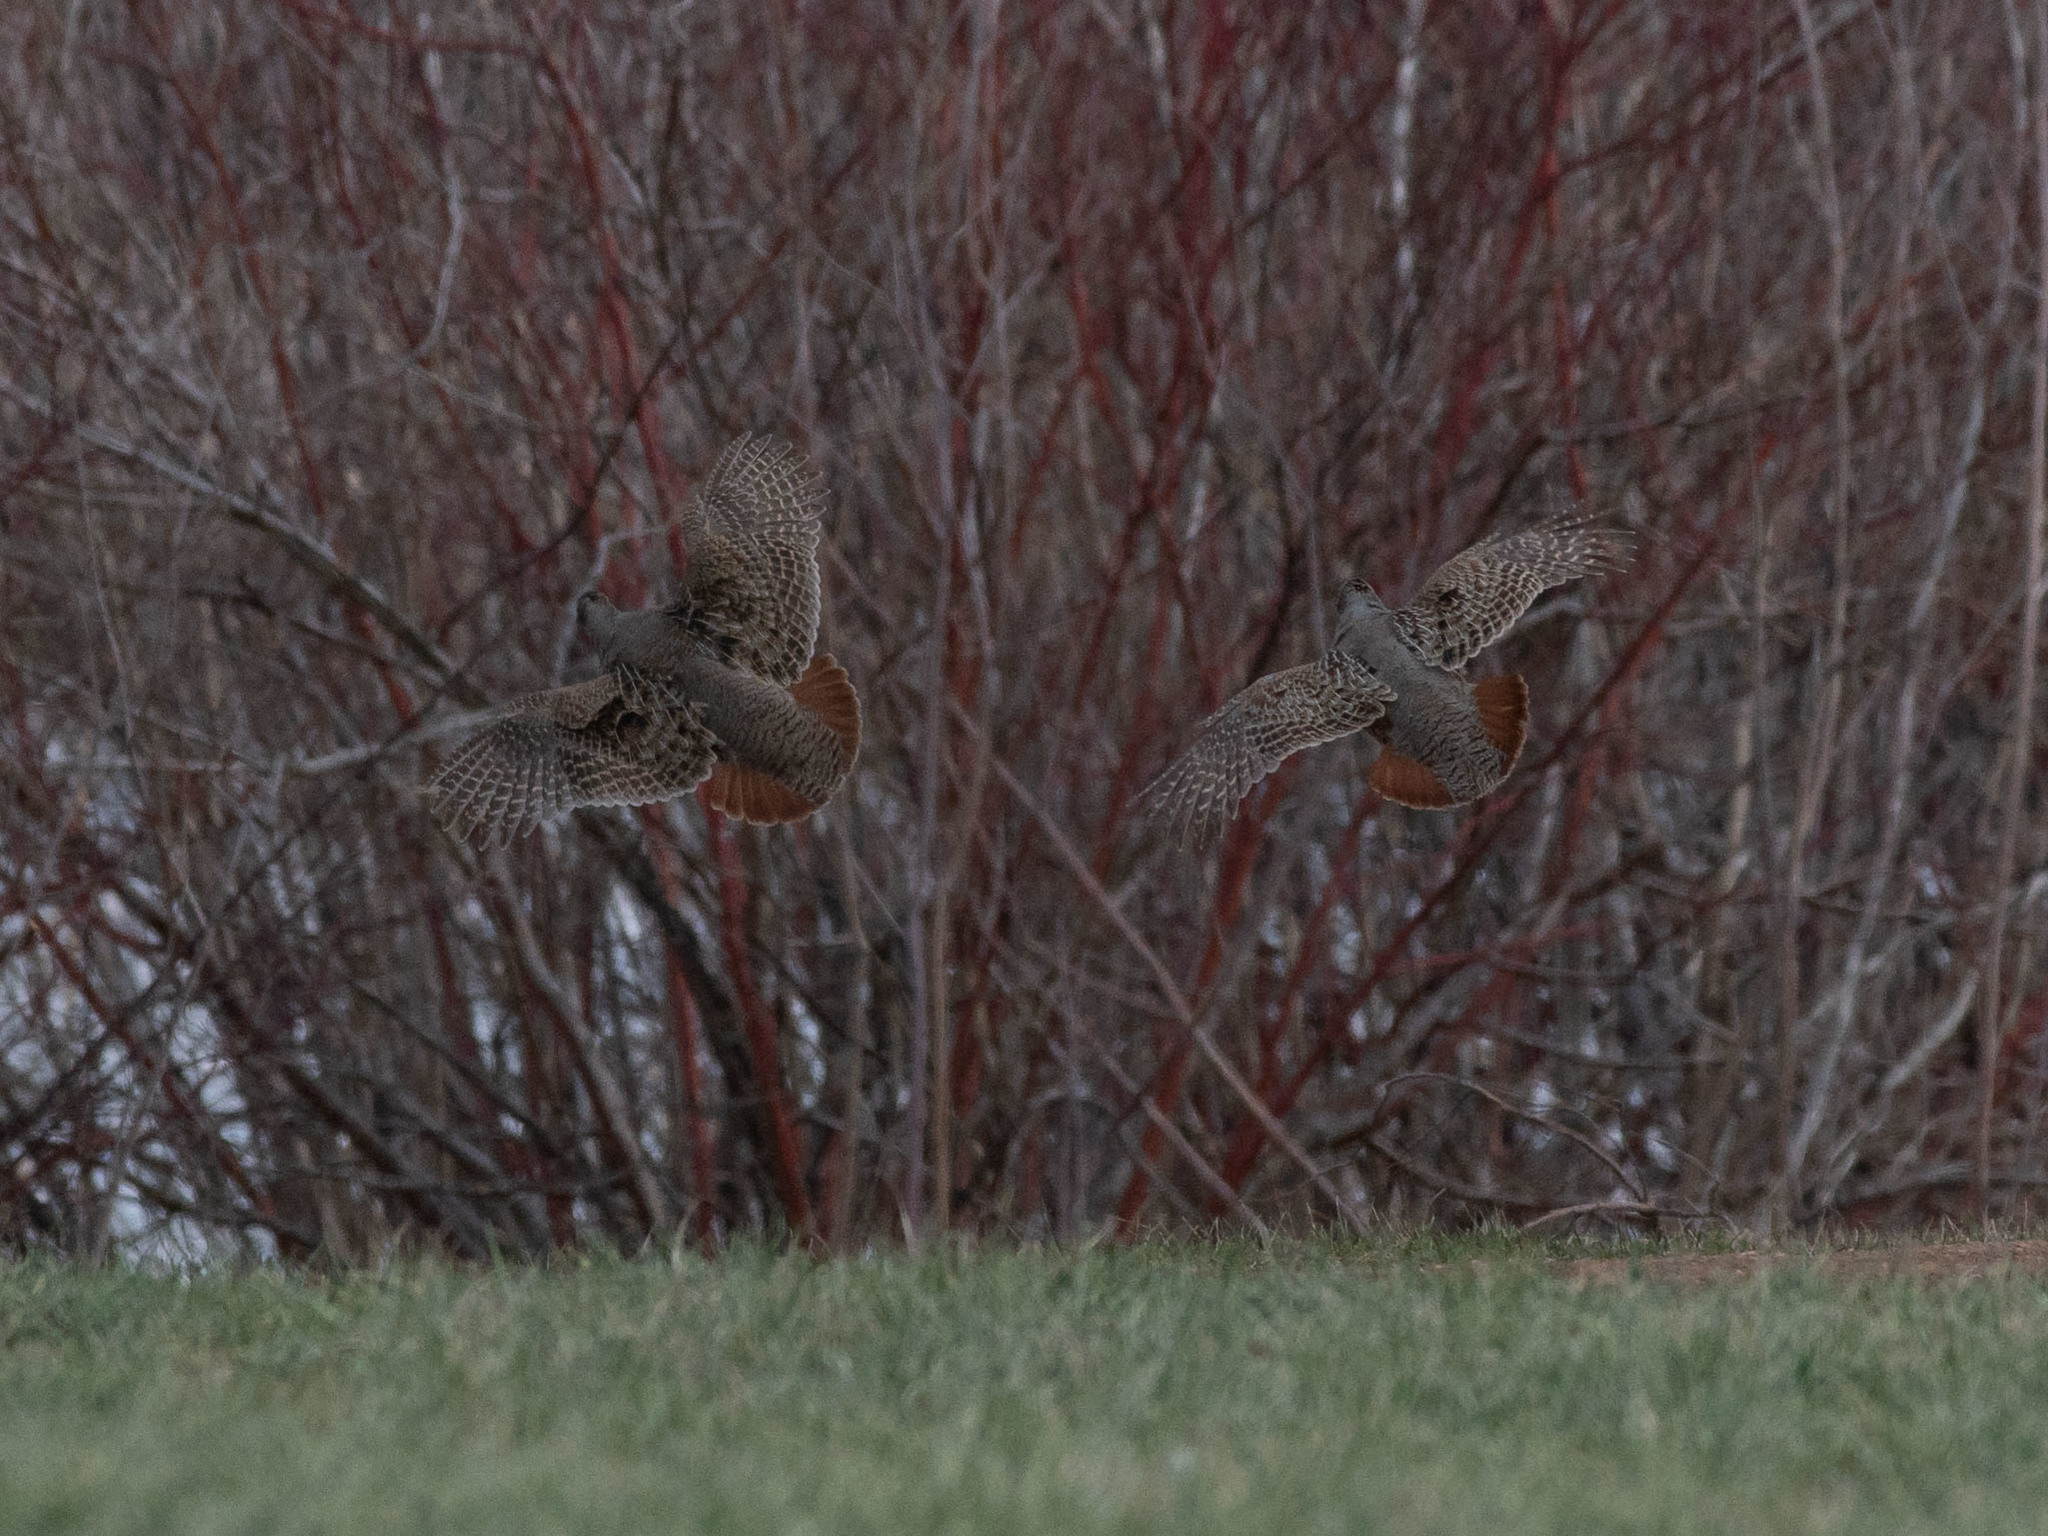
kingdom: Animalia
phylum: Chordata
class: Aves
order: Galliformes
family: Phasianidae
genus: Perdix
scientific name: Perdix perdix
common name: Grey partridge
